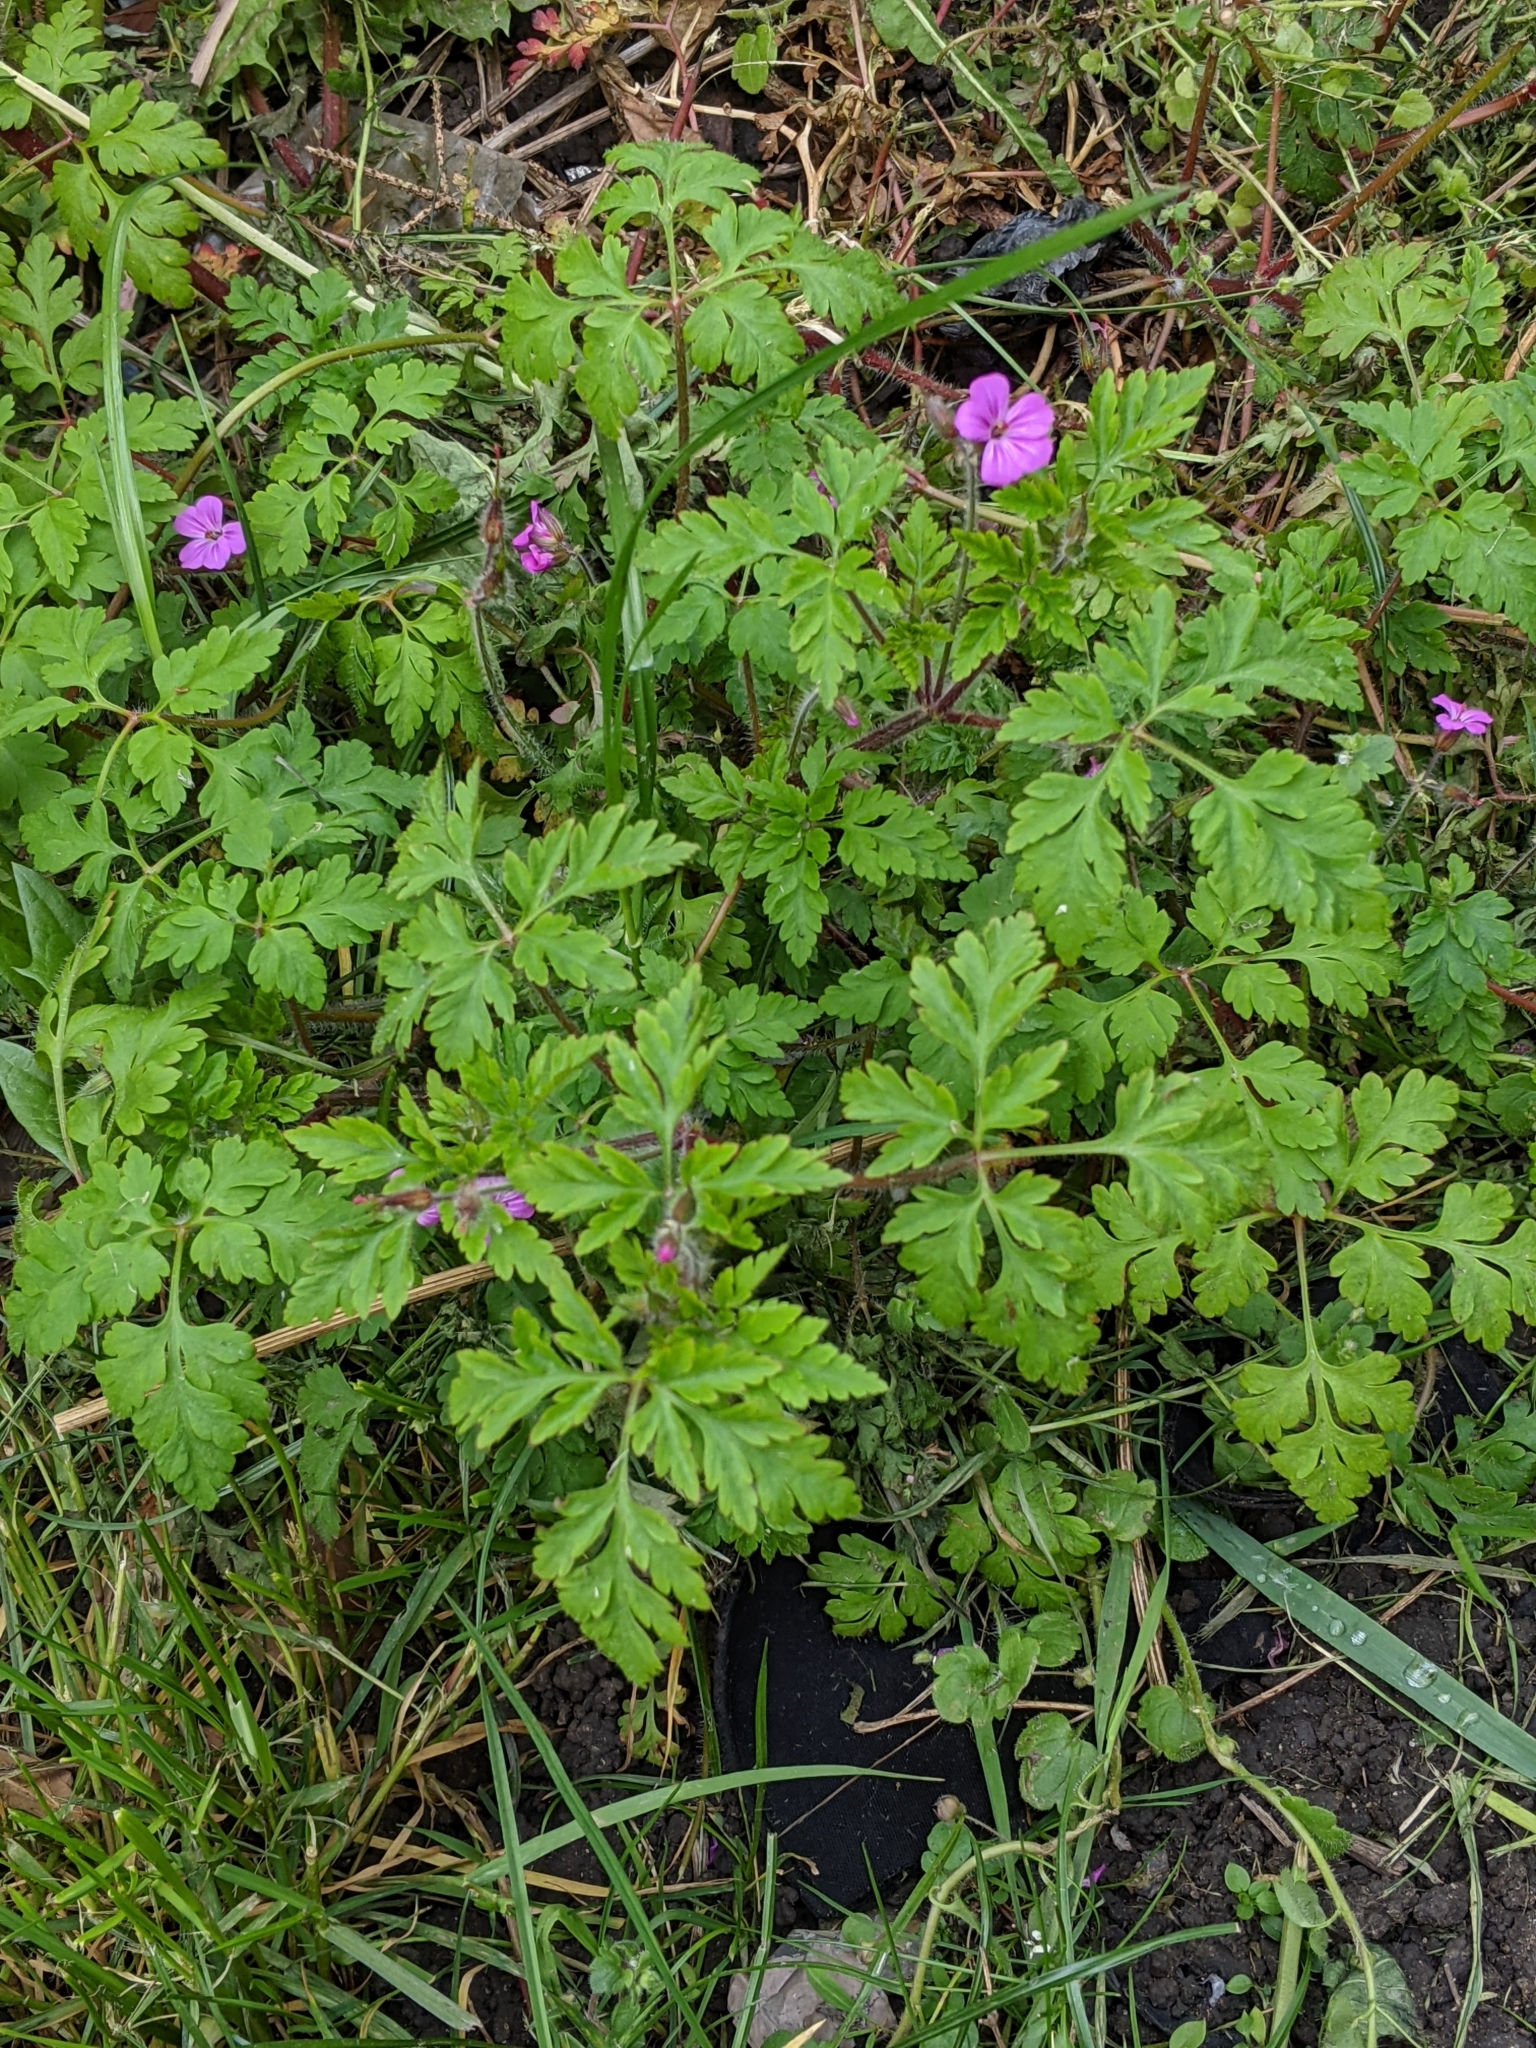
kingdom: Plantae
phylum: Tracheophyta
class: Magnoliopsida
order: Geraniales
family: Geraniaceae
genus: Geranium
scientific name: Geranium robertianum
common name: Herb-robert
